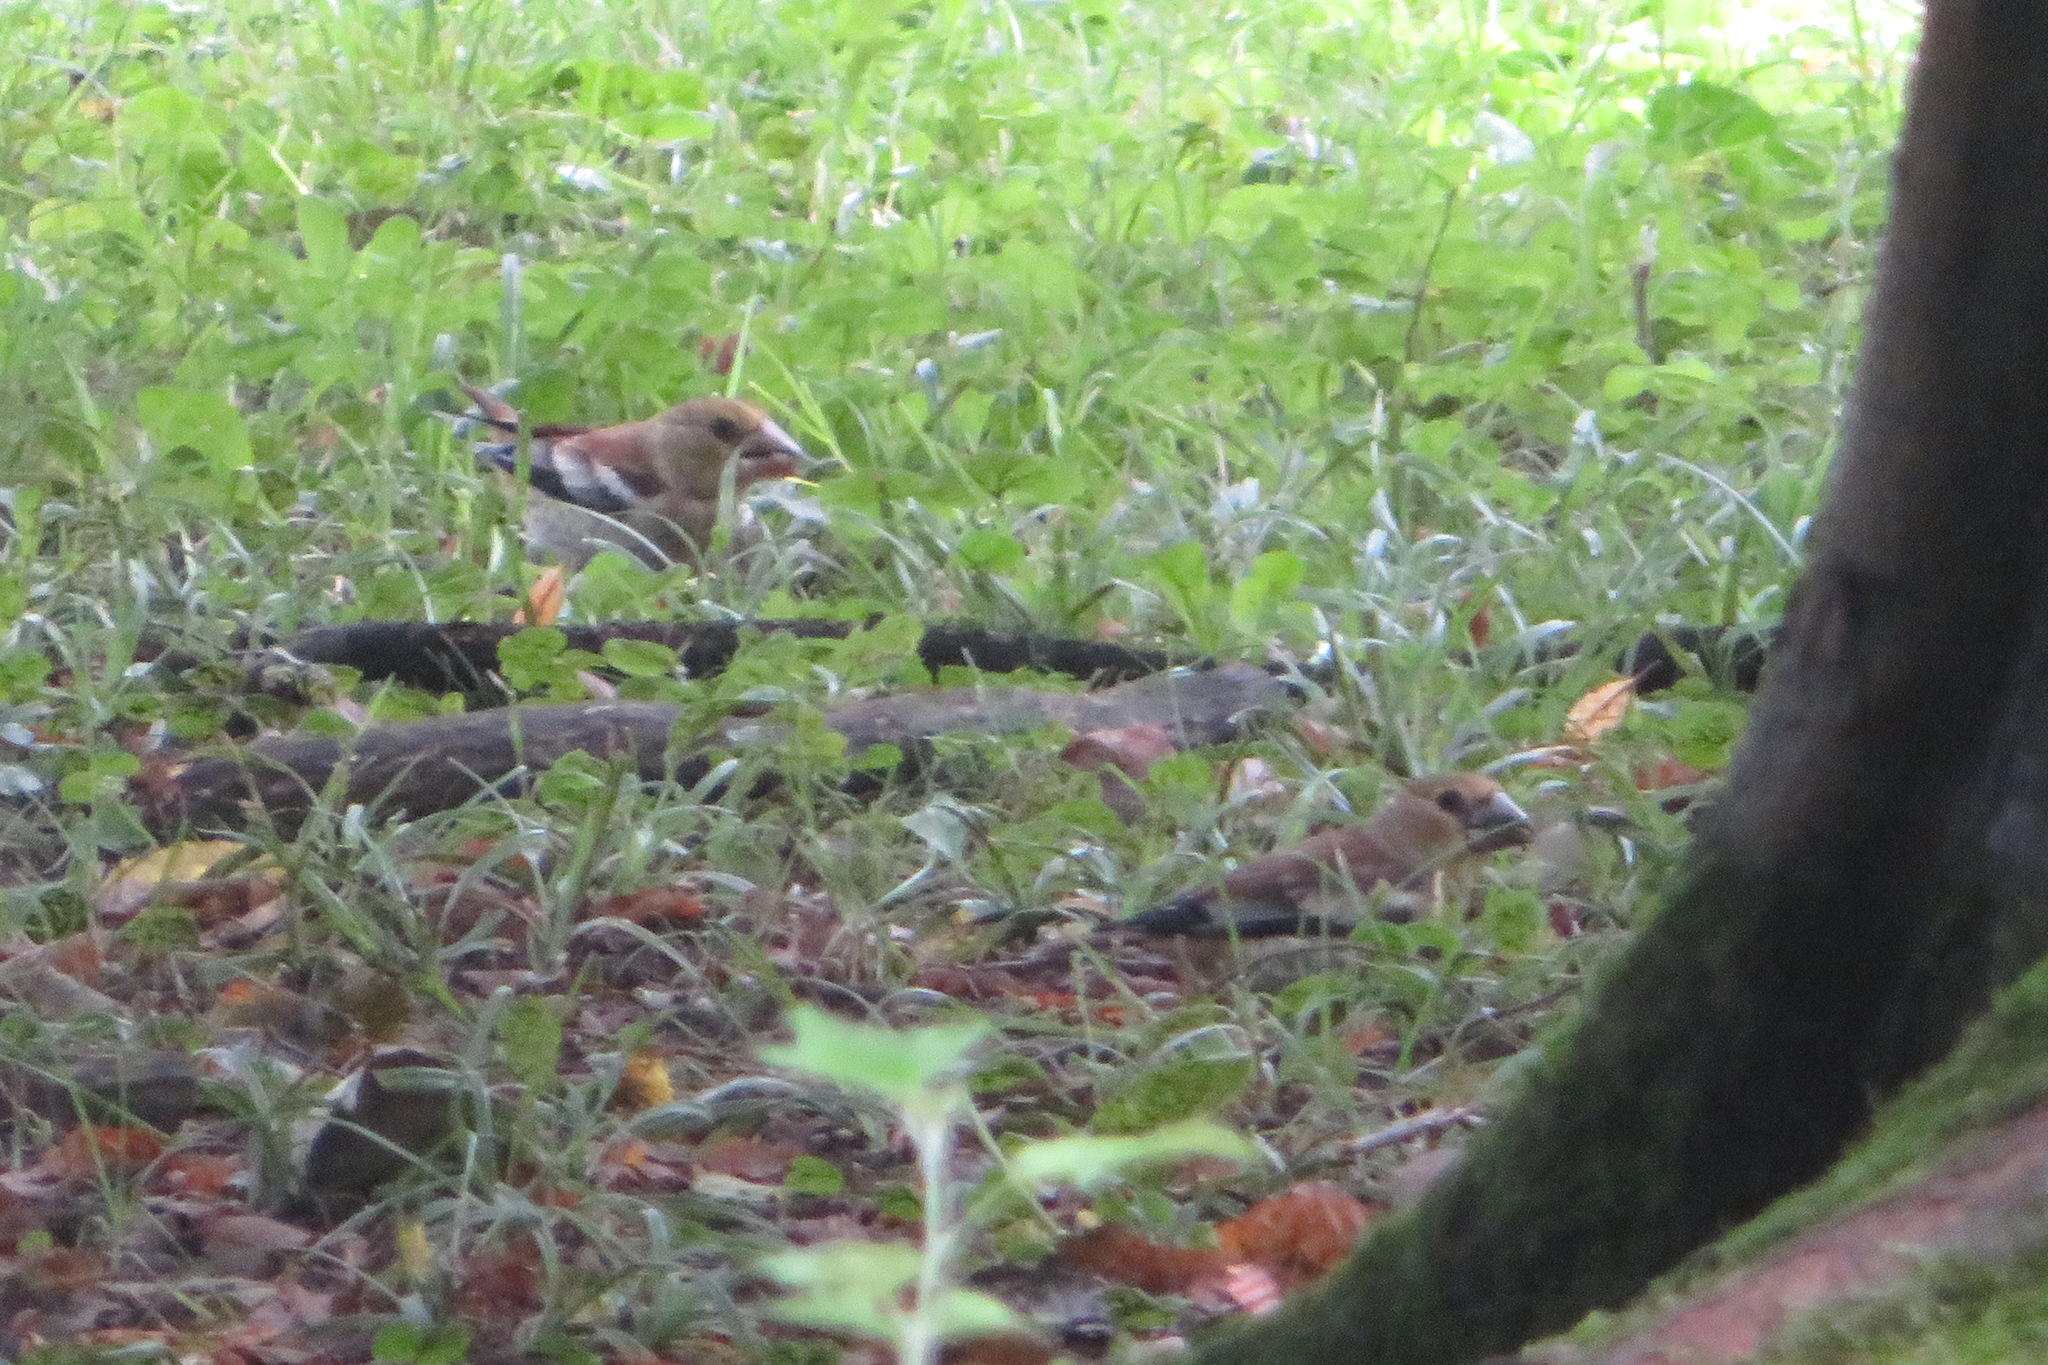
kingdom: Animalia
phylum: Chordata
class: Aves
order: Passeriformes
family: Fringillidae
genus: Coccothraustes
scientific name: Coccothraustes coccothraustes
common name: Hawfinch
